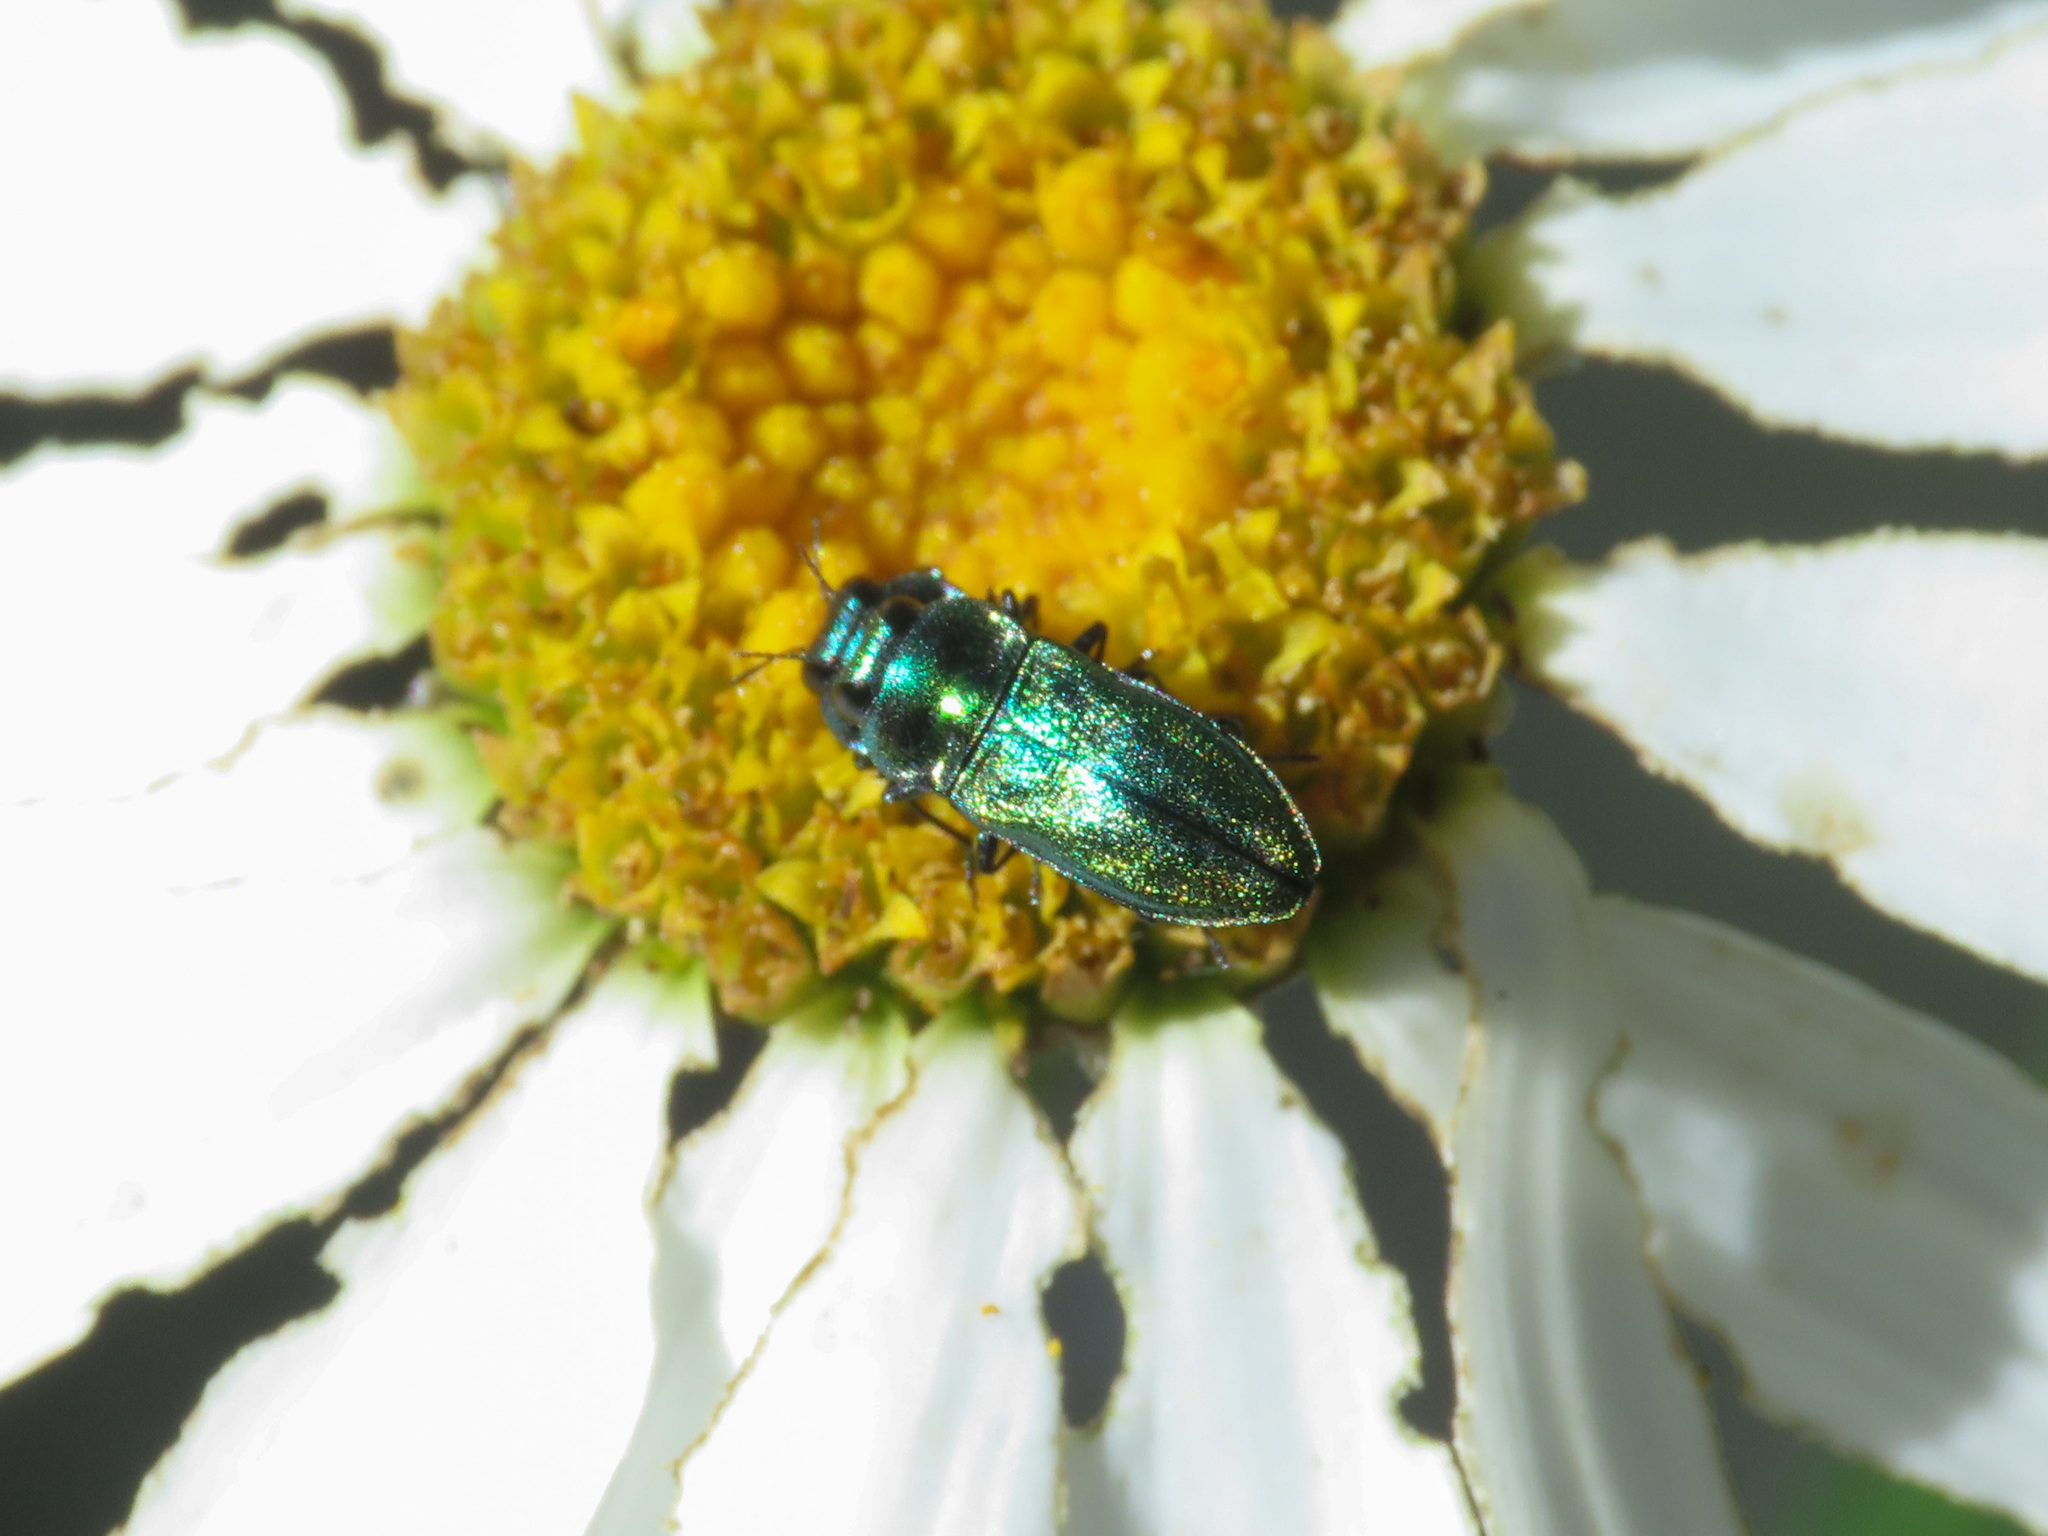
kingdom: Animalia
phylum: Arthropoda
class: Insecta
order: Coleoptera
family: Buprestidae
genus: Anthaxia
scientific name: Anthaxia thalassophila
